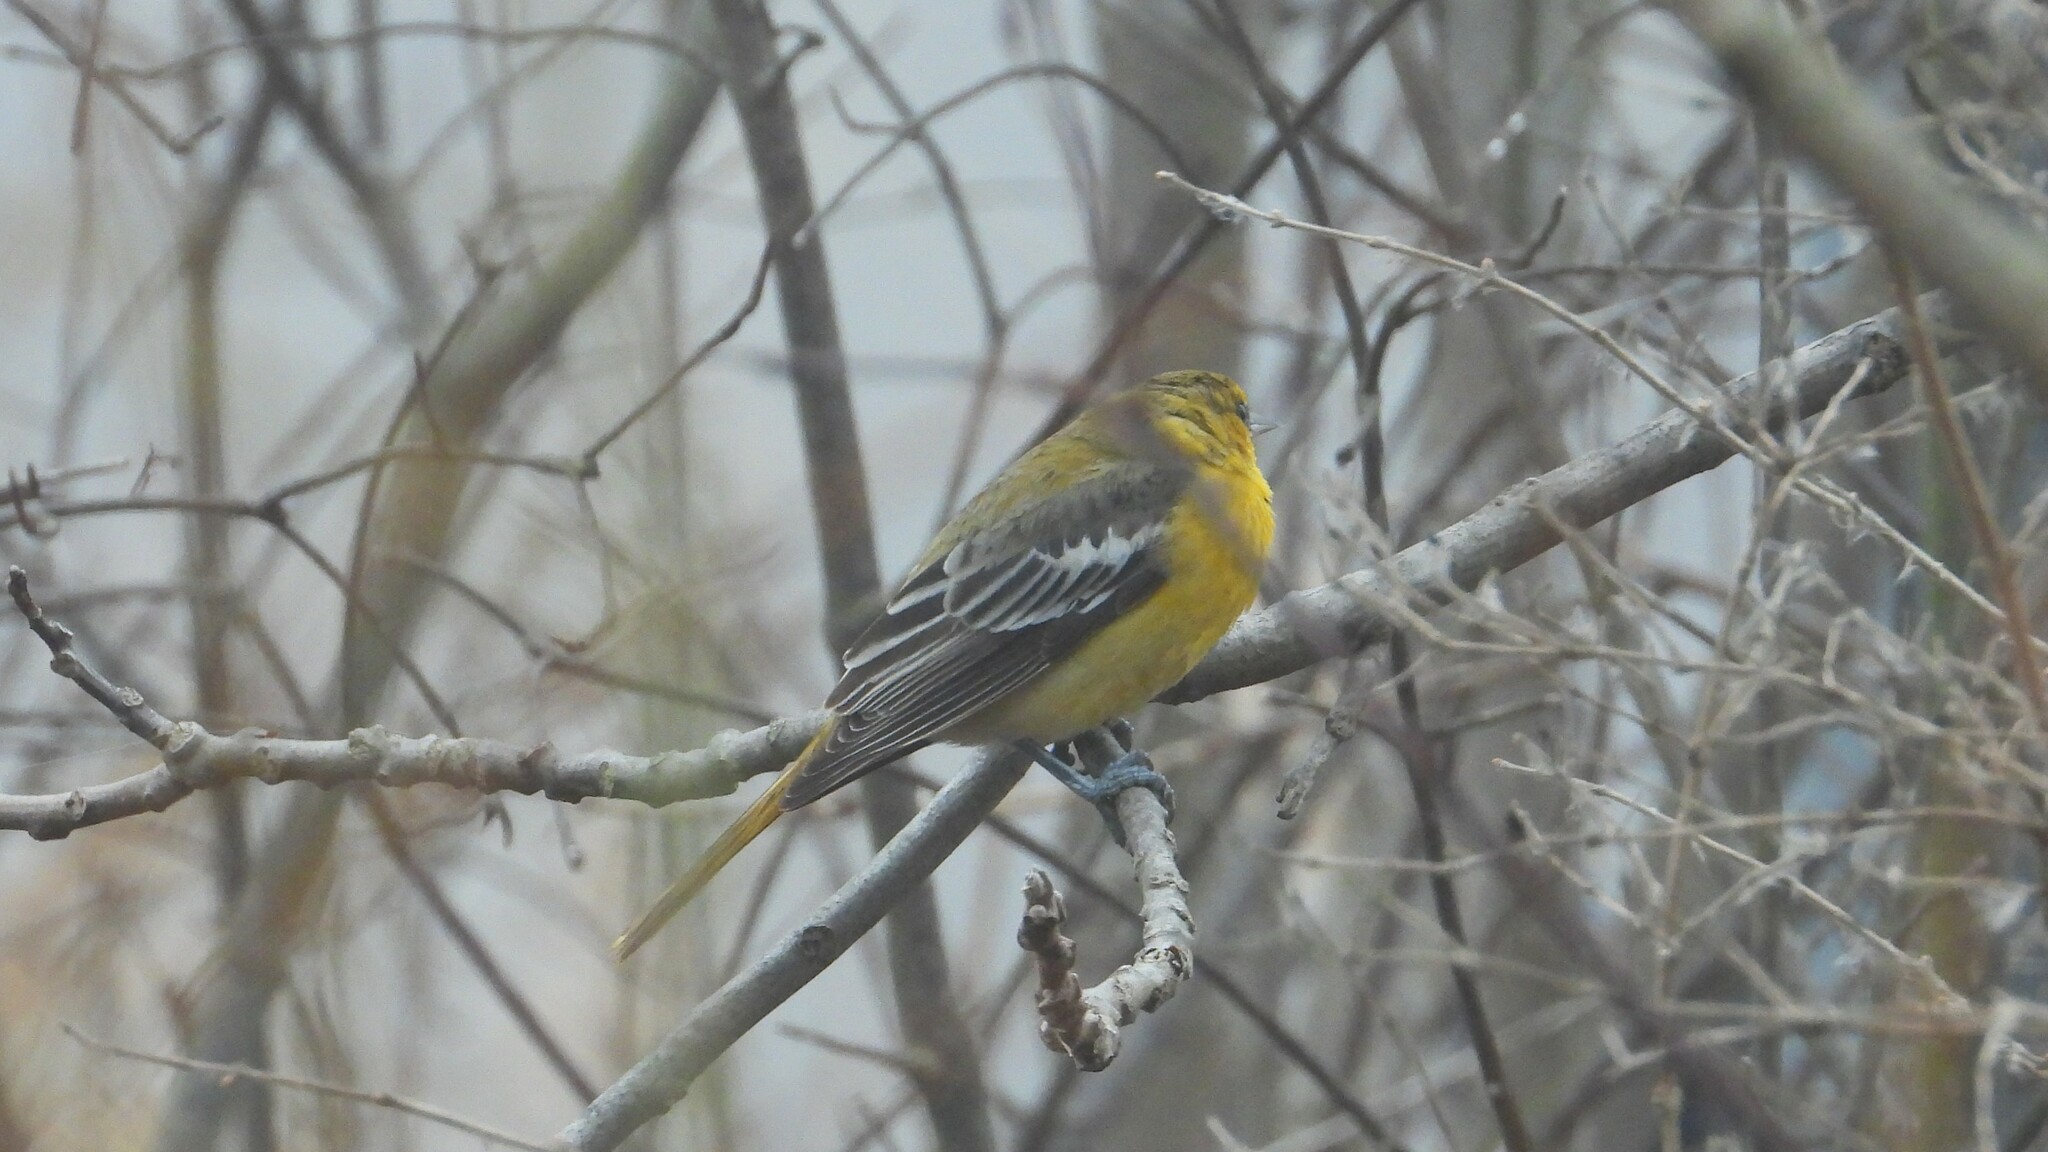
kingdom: Animalia
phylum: Chordata
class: Aves
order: Passeriformes
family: Icteridae
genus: Icterus
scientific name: Icterus bullockii
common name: Bullock's oriole
